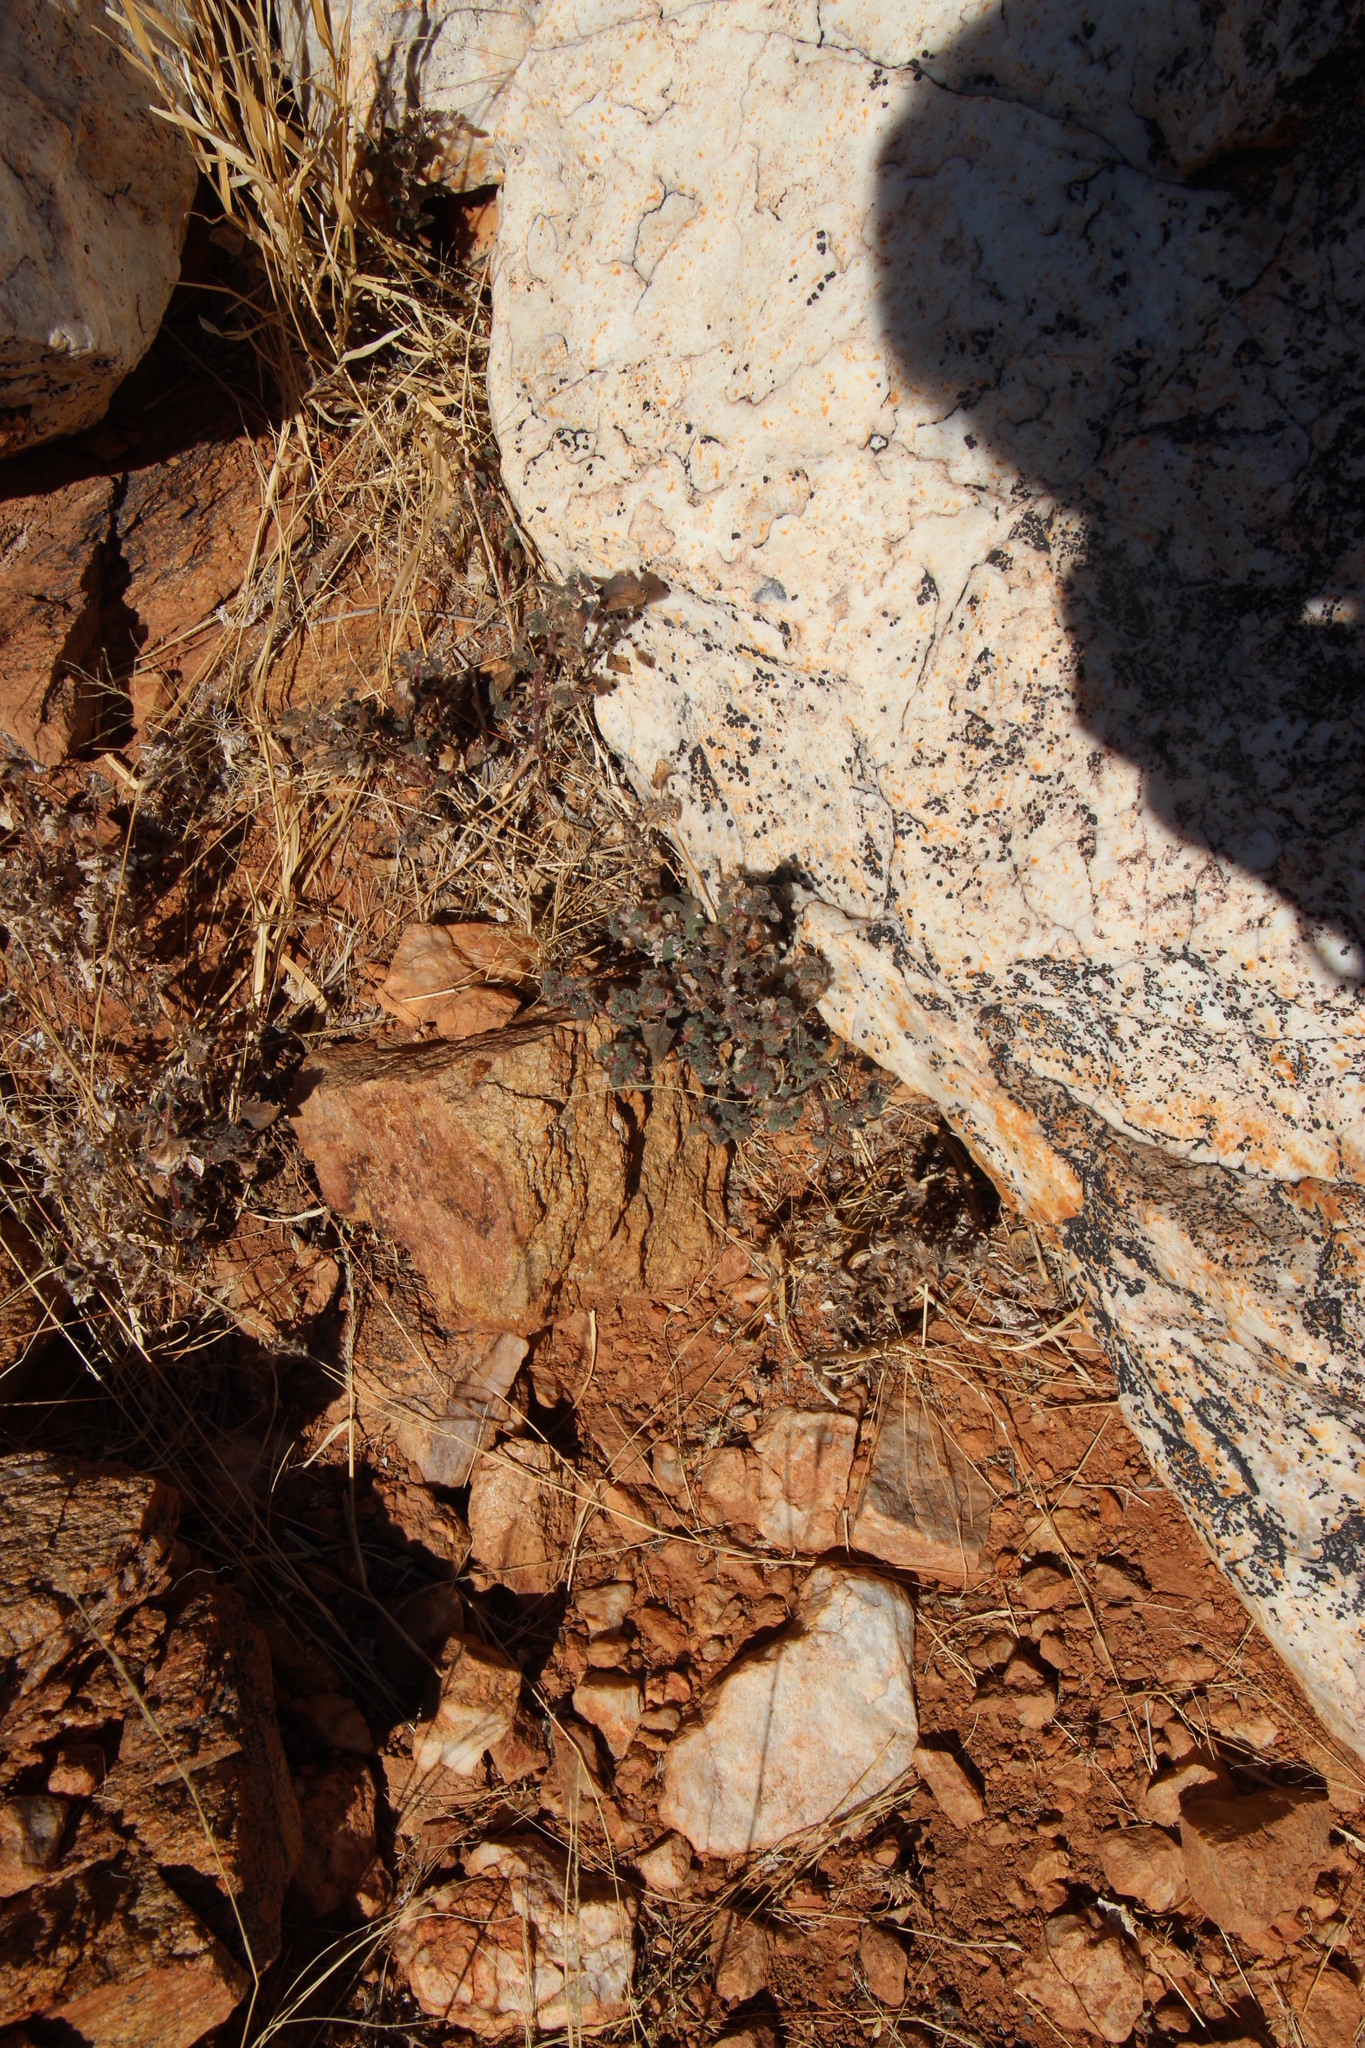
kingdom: Plantae
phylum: Tracheophyta
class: Magnoliopsida
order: Rosales
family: Urticaceae
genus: Forsskaolea
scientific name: Forsskaolea candida
